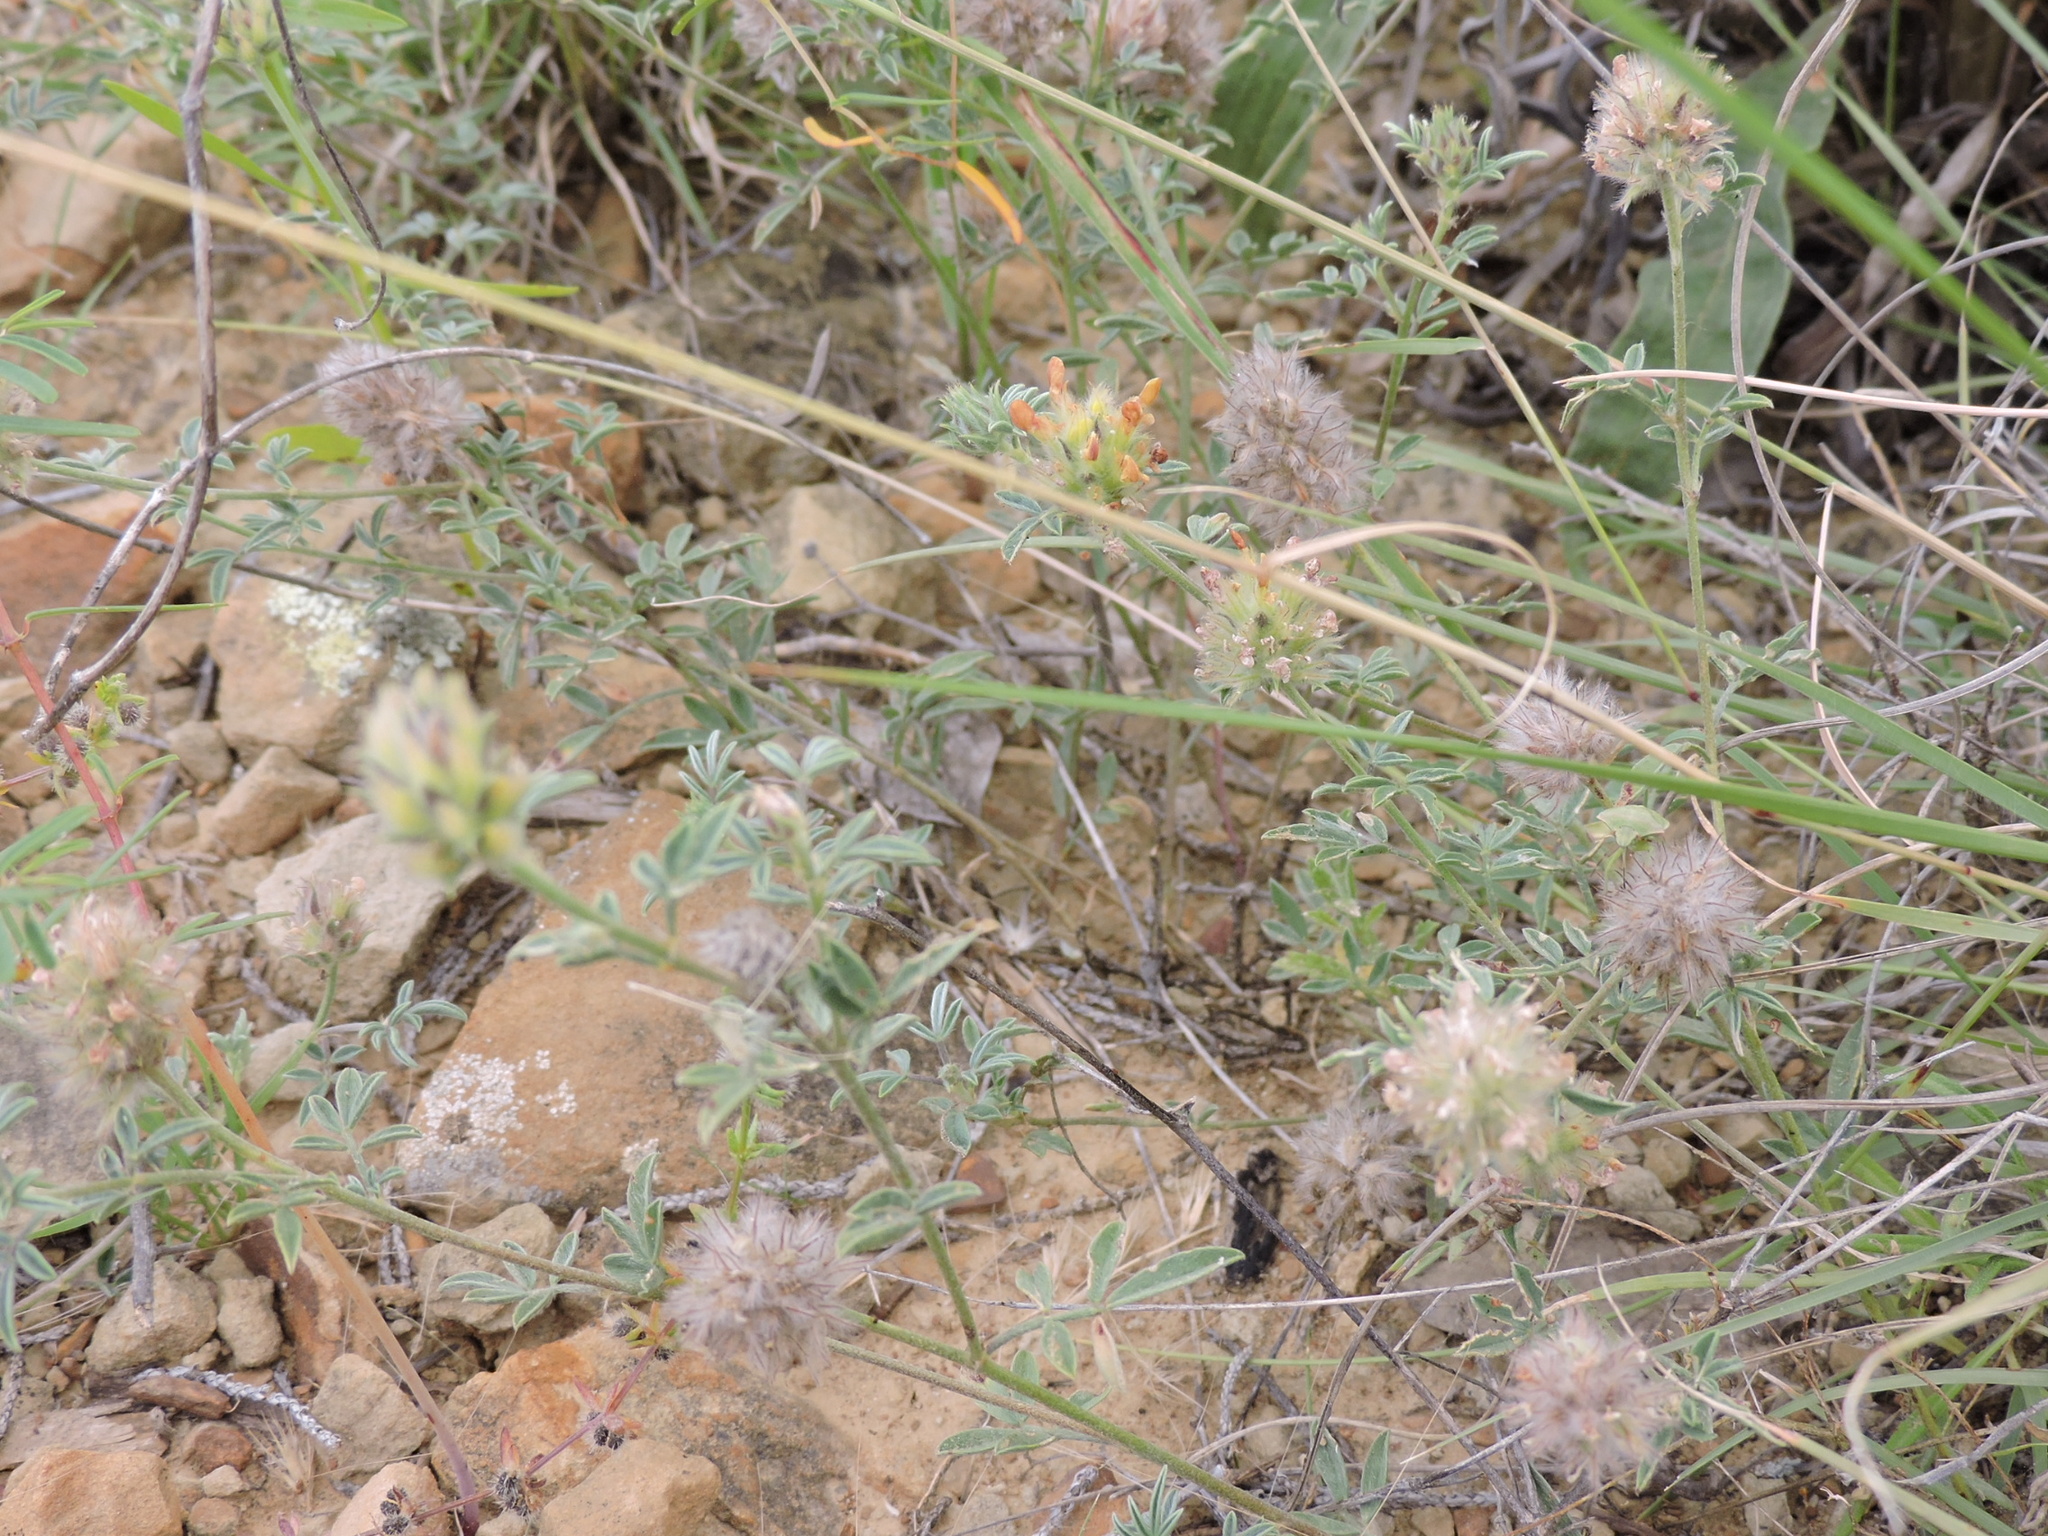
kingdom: Plantae
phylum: Tracheophyta
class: Magnoliopsida
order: Fabales
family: Fabaceae
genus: Dalea
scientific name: Dalea nana
